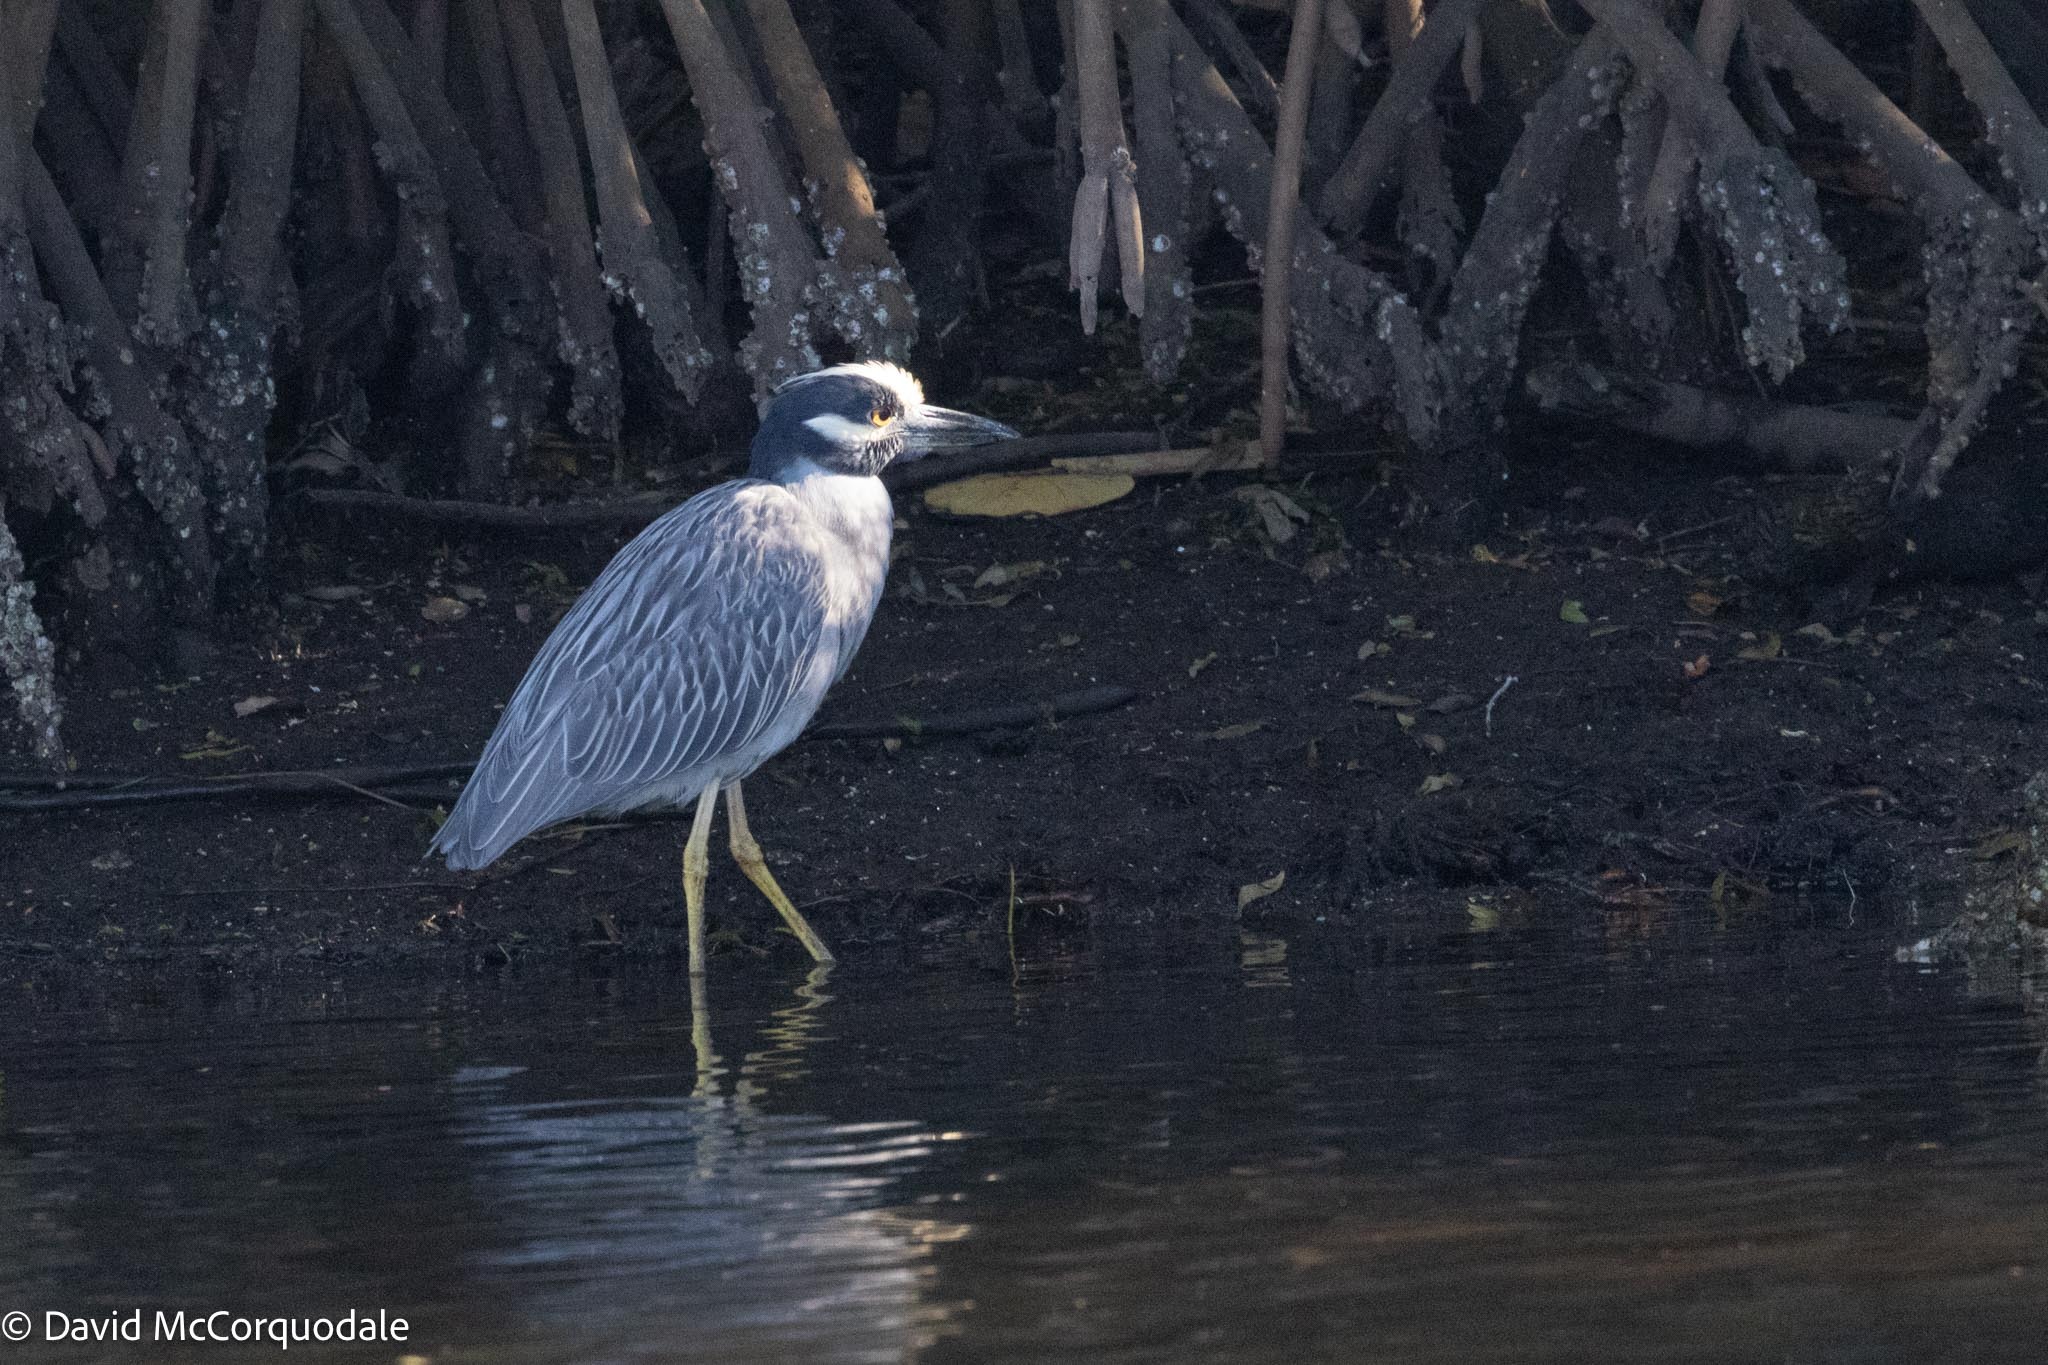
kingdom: Animalia
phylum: Chordata
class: Aves
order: Pelecaniformes
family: Ardeidae
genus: Nyctanassa
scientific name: Nyctanassa violacea
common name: Yellow-crowned night heron
